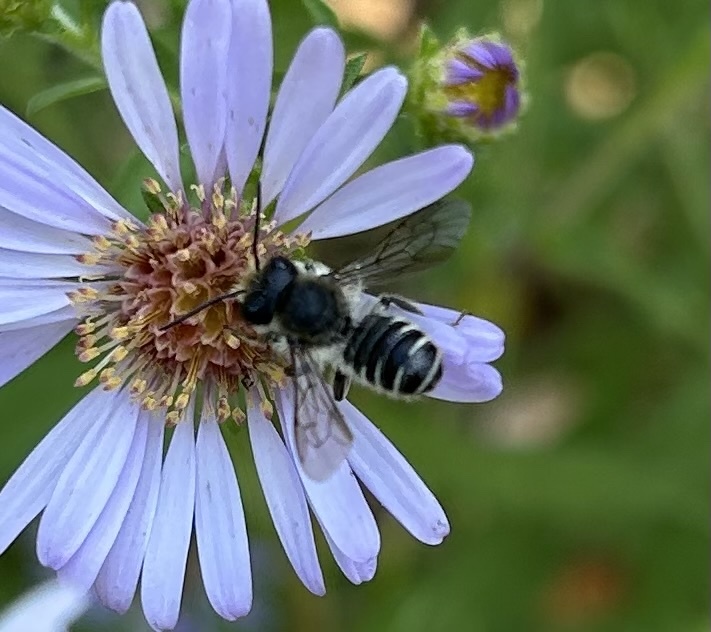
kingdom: Animalia
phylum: Arthropoda
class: Insecta
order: Hymenoptera
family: Megachilidae
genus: Megachile
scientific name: Megachile
